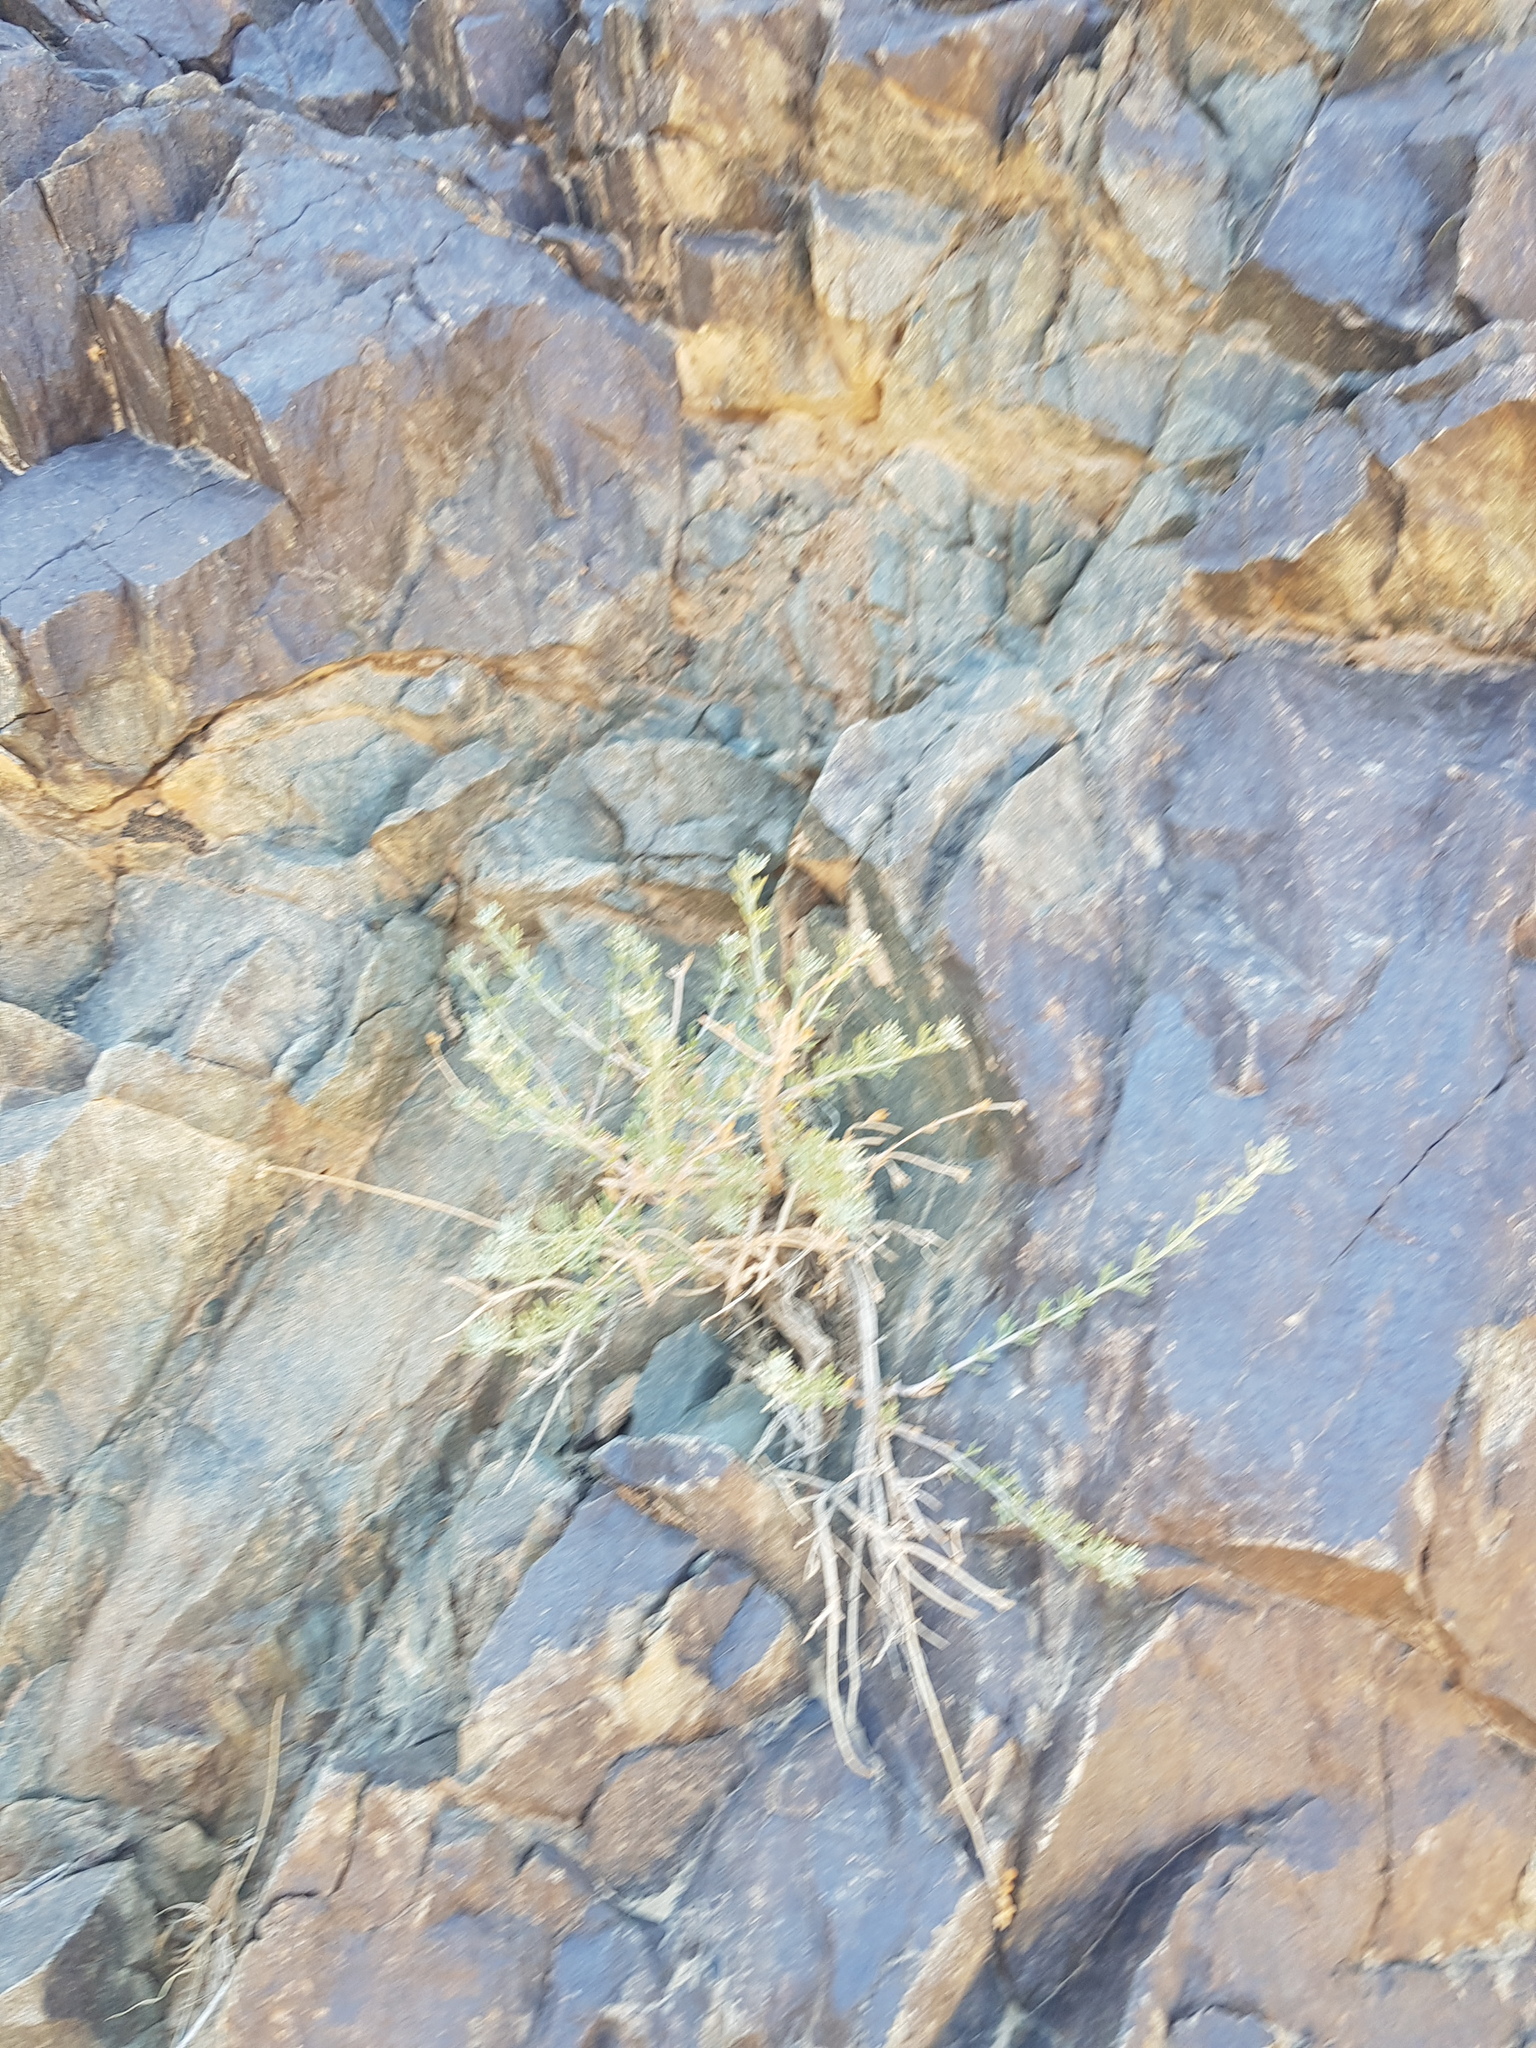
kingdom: Plantae
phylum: Tracheophyta
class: Magnoliopsida
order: Asterales
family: Asteraceae
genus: Ajania
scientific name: Ajania fruticulosa
